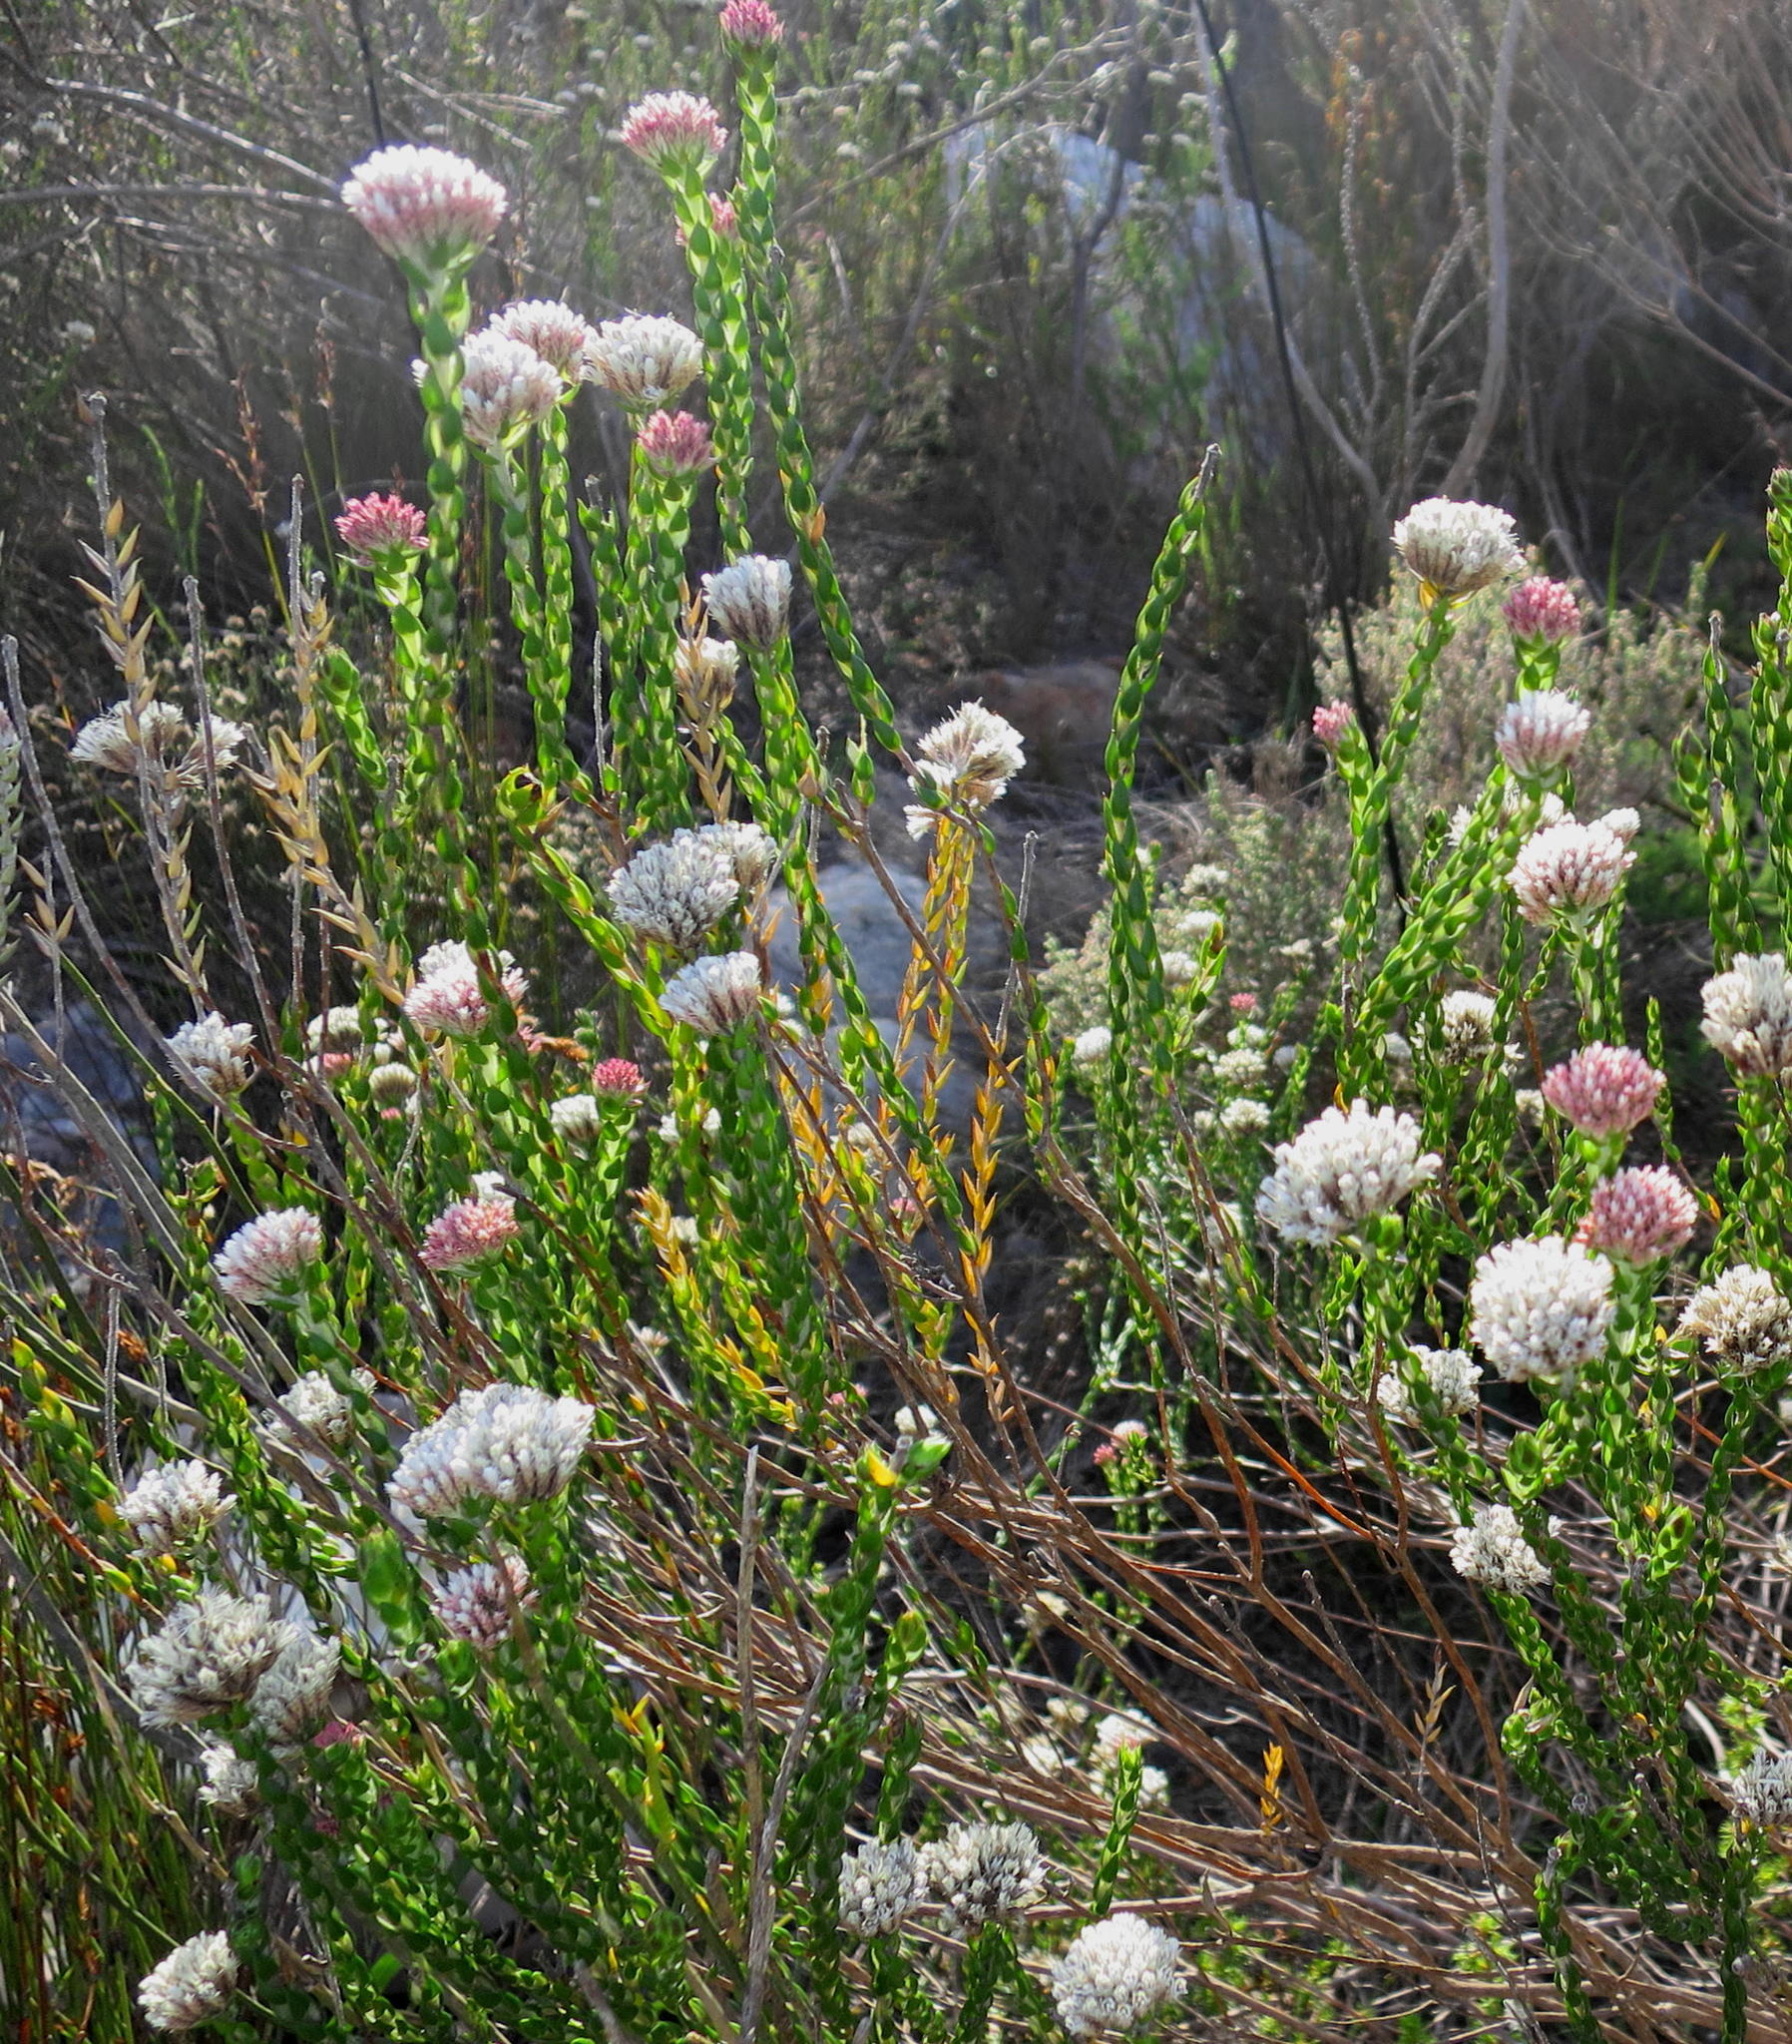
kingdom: Plantae
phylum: Tracheophyta
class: Magnoliopsida
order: Asterales
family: Asteraceae
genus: Metalasia
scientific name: Metalasia pulcherrima
